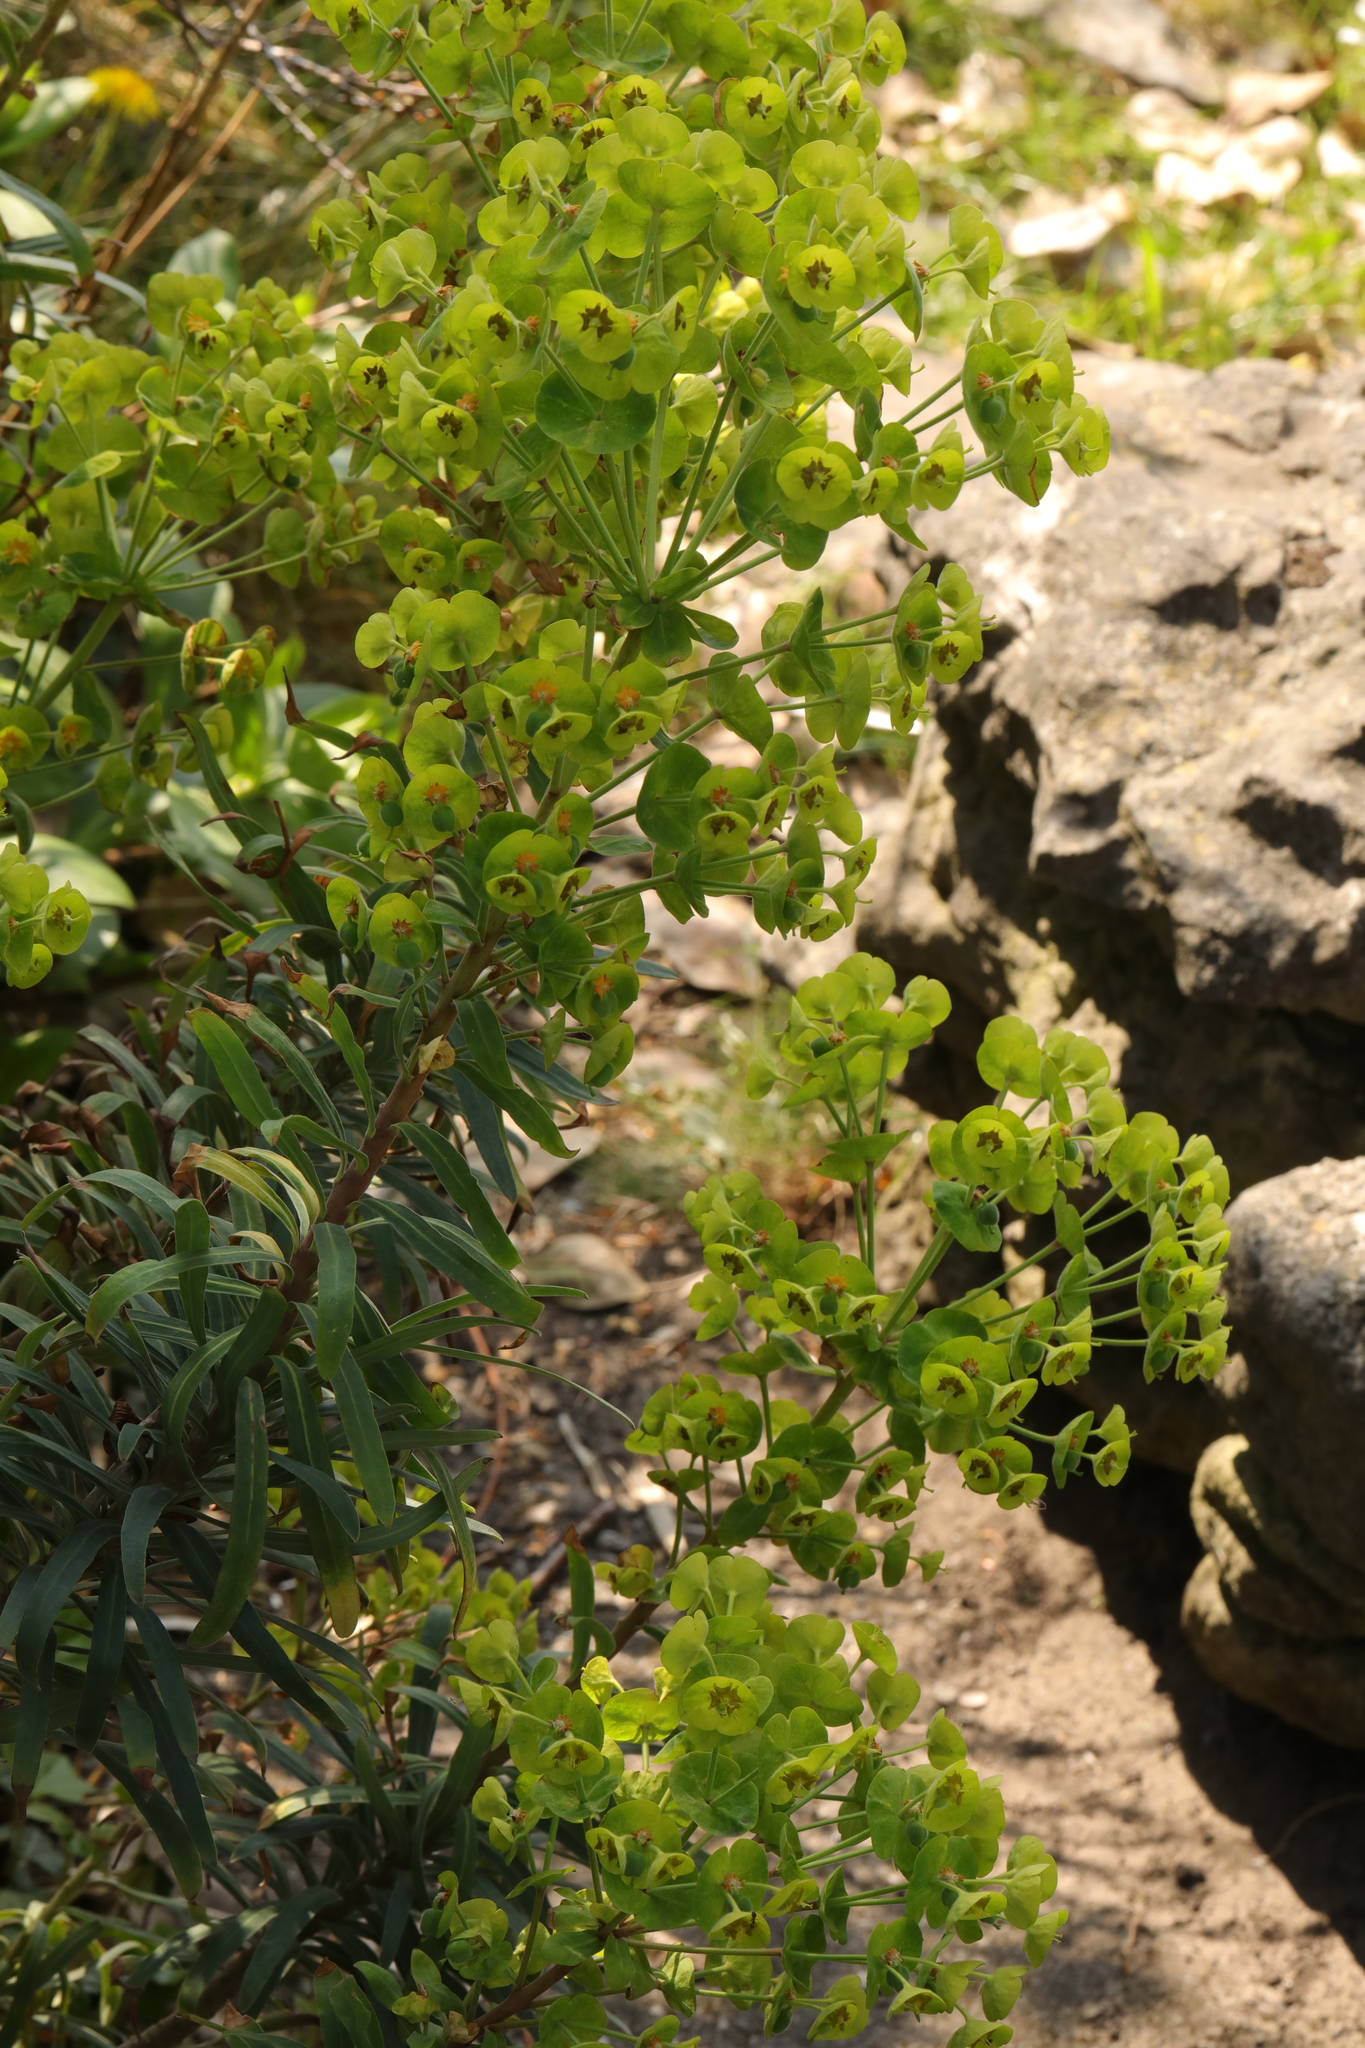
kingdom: Plantae
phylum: Tracheophyta
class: Magnoliopsida
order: Malpighiales
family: Euphorbiaceae
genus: Euphorbia
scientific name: Euphorbia characias
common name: Mediterranean spurge
